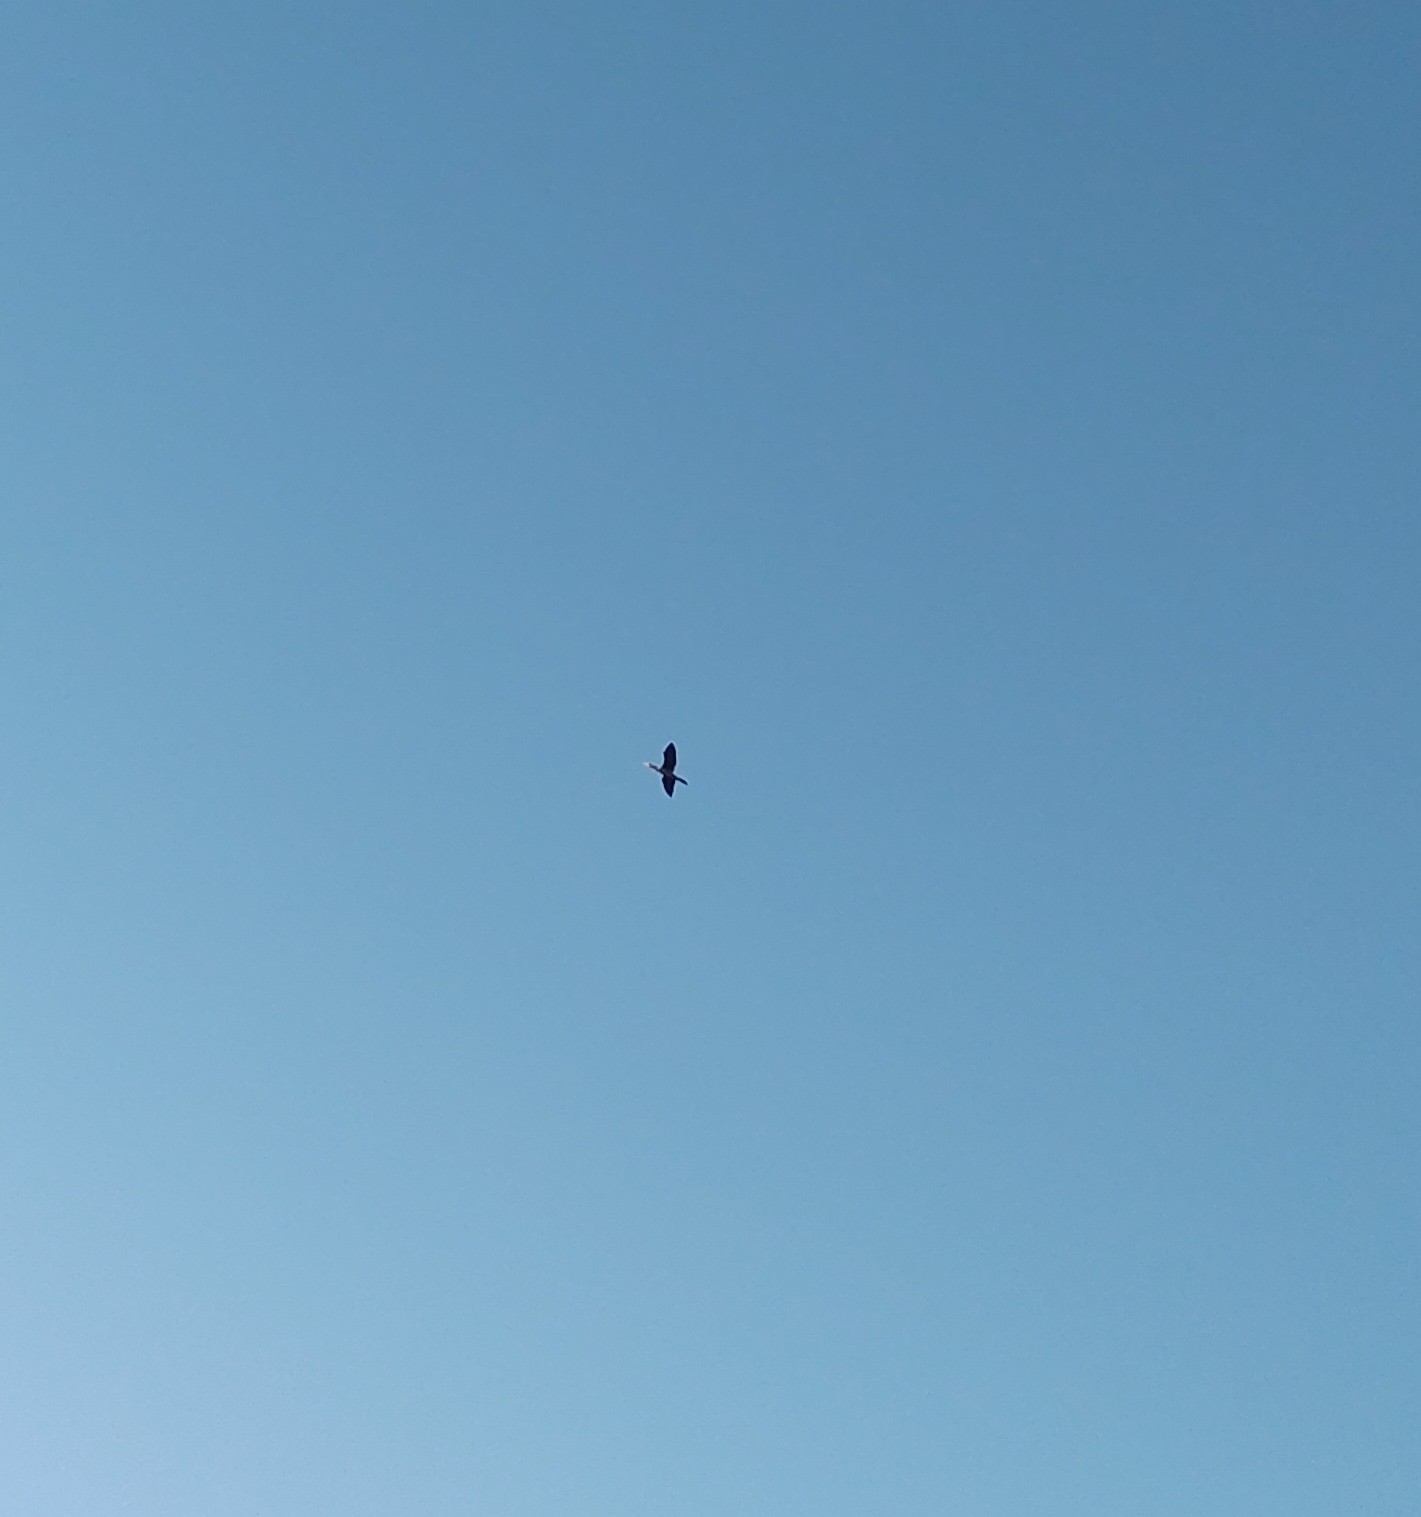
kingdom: Animalia
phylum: Chordata
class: Aves
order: Suliformes
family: Phalacrocoracidae
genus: Phalacrocorax
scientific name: Phalacrocorax brasilianus
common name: Neotropic cormorant
